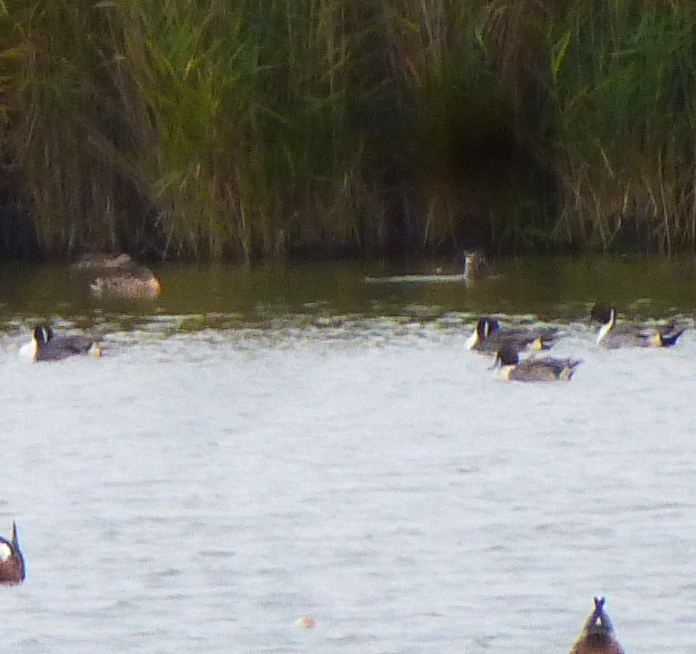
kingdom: Animalia
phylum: Chordata
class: Aves
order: Anseriformes
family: Anatidae
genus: Anas
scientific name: Anas acuta
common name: Northern pintail
